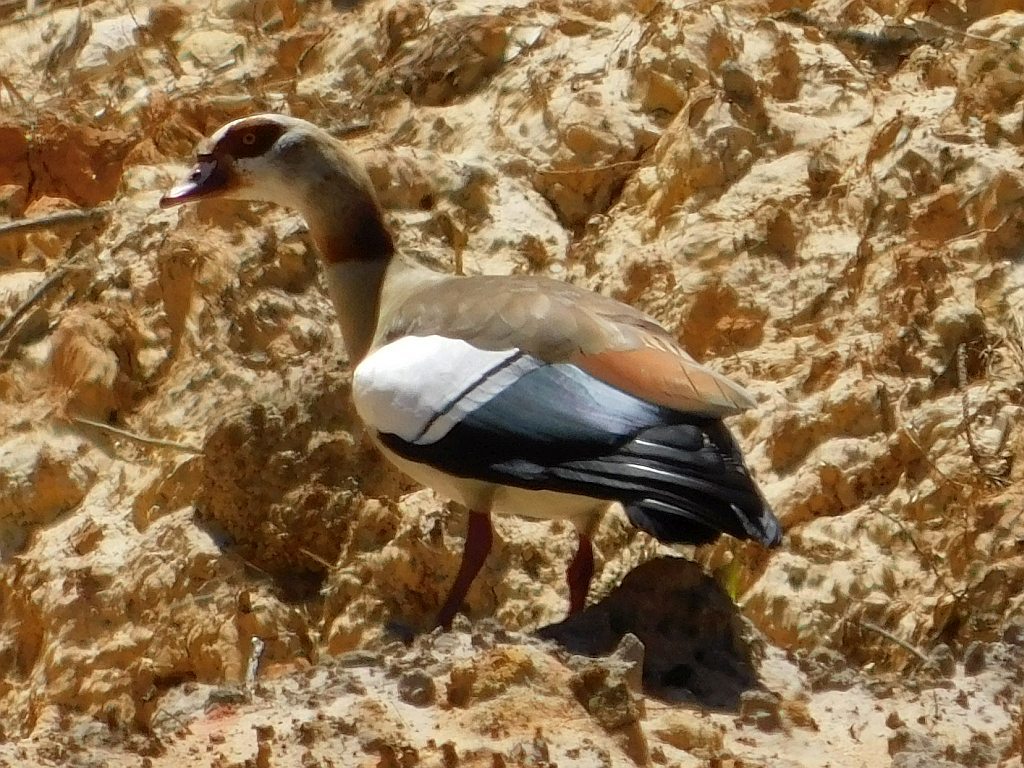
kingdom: Animalia
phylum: Chordata
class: Aves
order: Anseriformes
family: Anatidae
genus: Alopochen
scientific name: Alopochen aegyptiaca
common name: Egyptian goose
